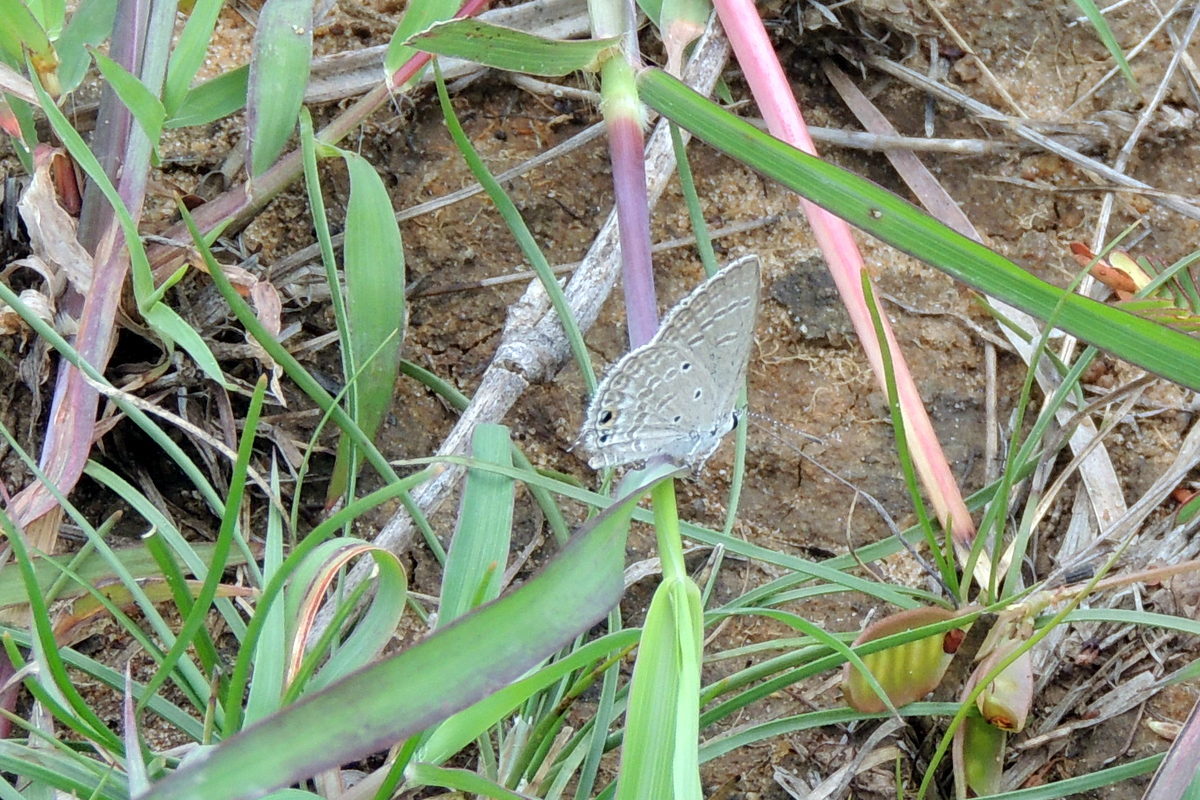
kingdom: Animalia
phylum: Arthropoda
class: Insecta
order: Lepidoptera
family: Lycaenidae
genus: Chilades
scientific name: Chilades parrhasius
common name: Small cupid
